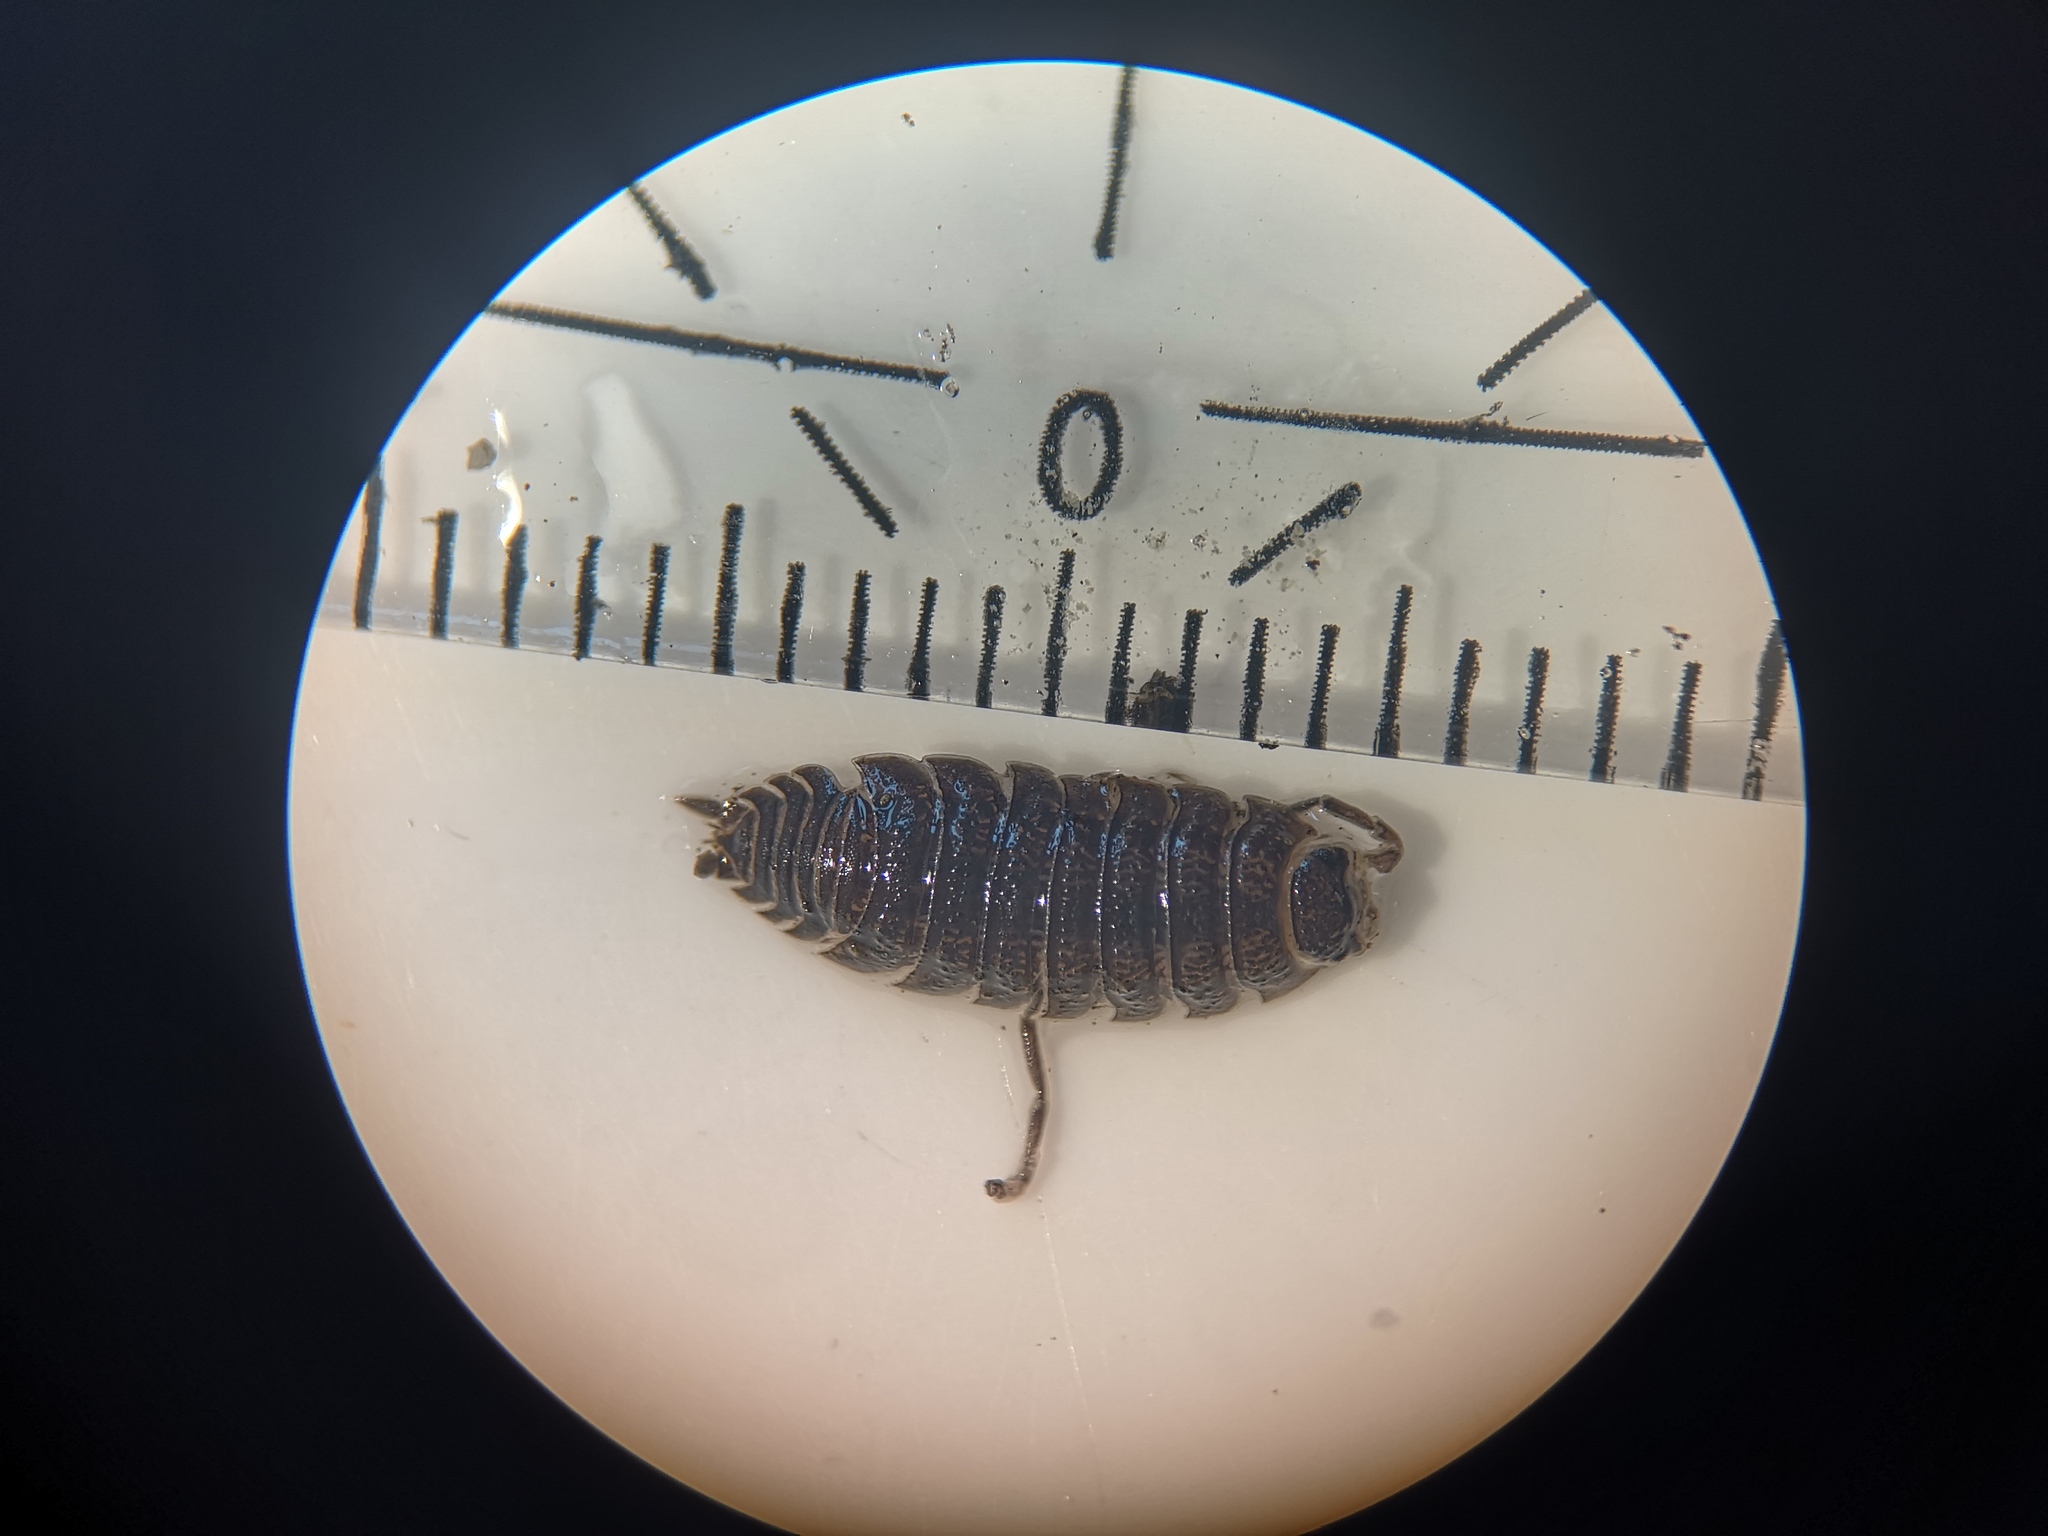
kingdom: Animalia
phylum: Arthropoda
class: Malacostraca
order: Isopoda
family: Porcellionidae
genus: Porcellio
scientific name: Porcellio scaber
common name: Common rough woodlouse
